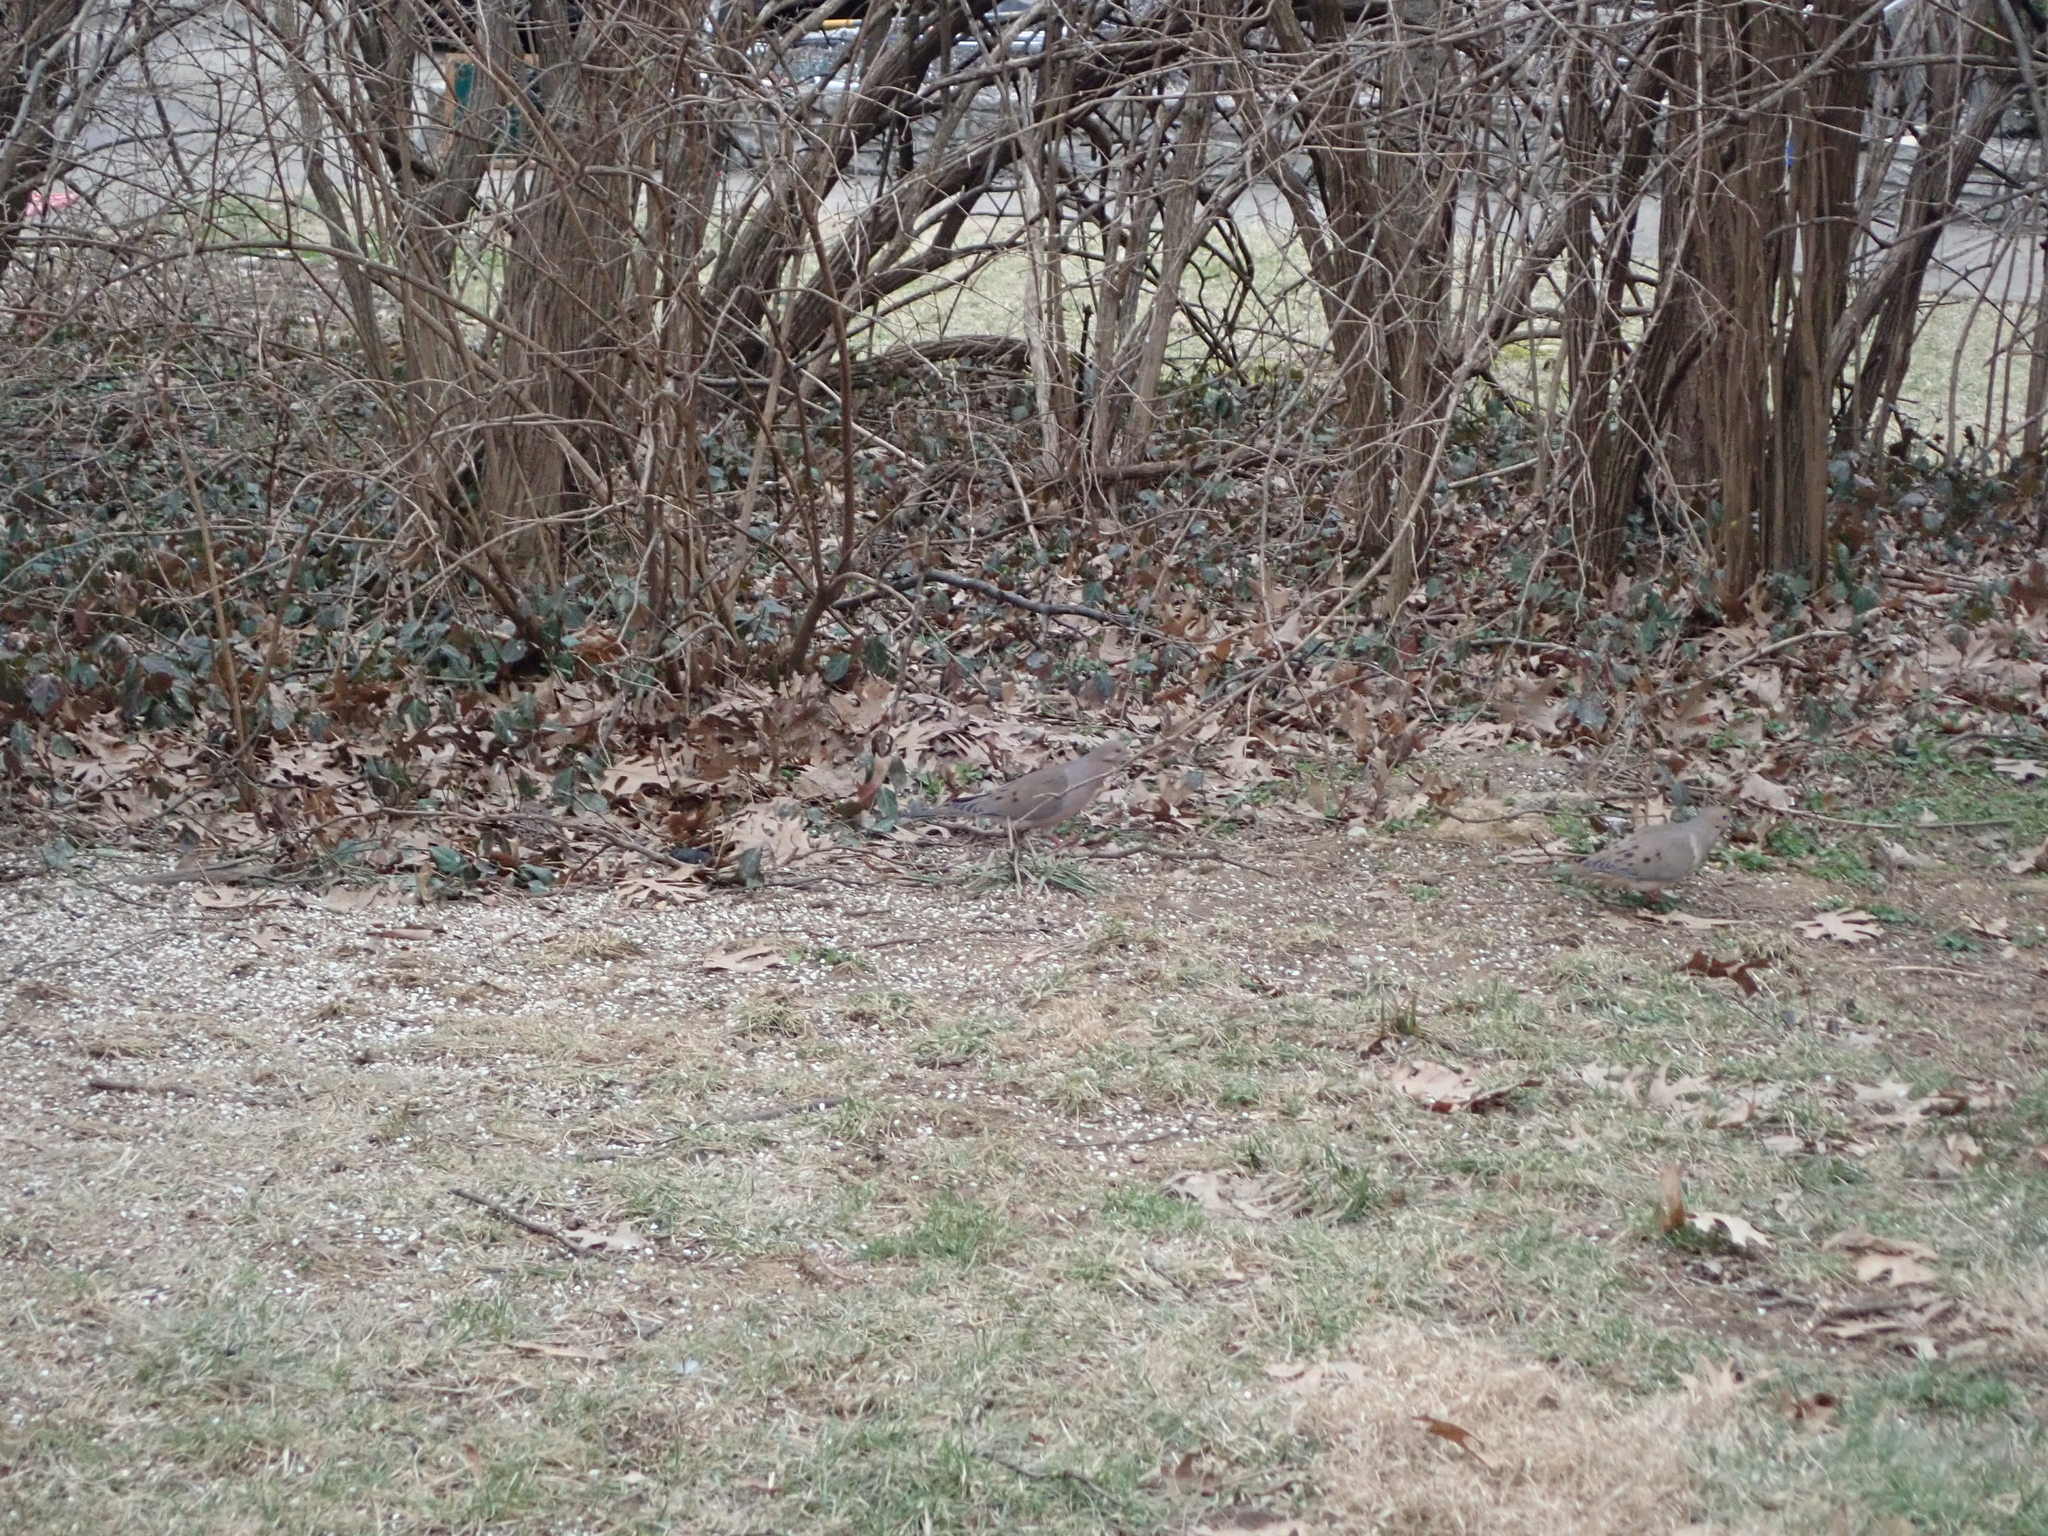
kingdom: Animalia
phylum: Chordata
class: Aves
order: Columbiformes
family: Columbidae
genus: Zenaida
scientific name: Zenaida macroura
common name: Mourning dove
